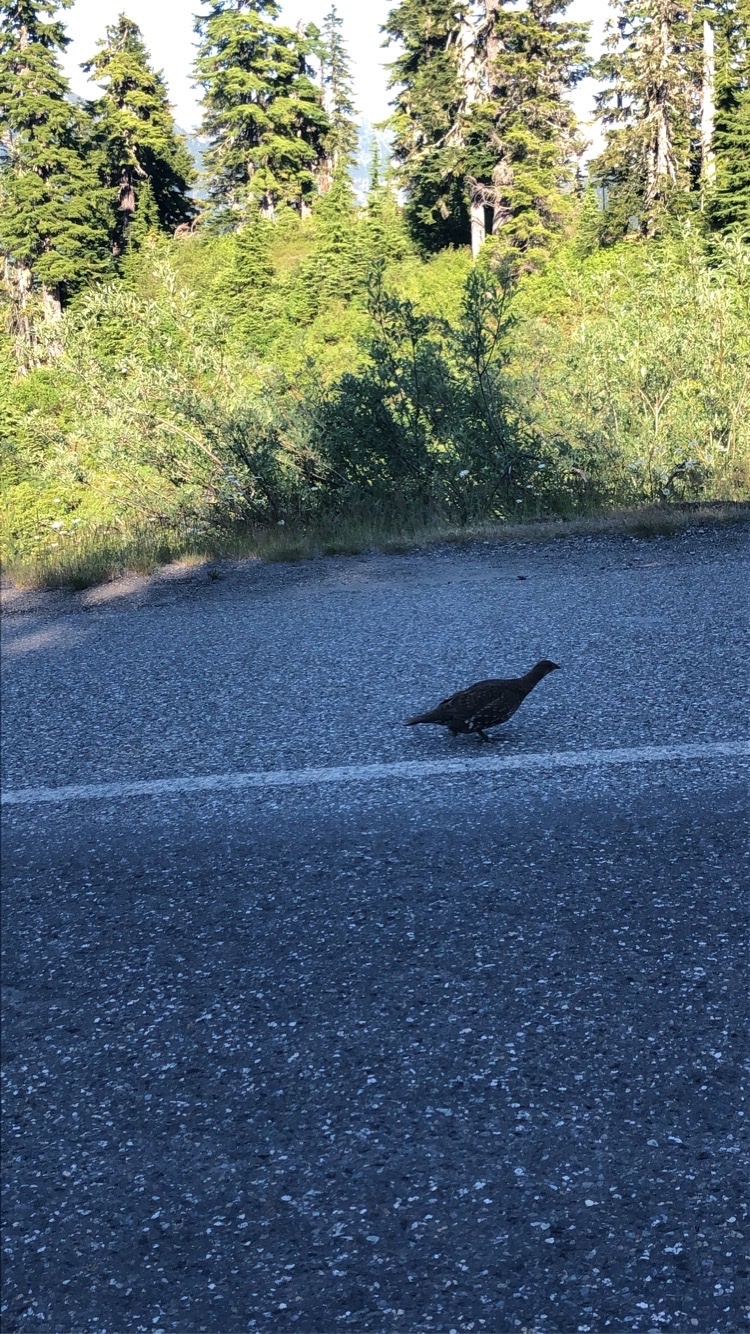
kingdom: Animalia
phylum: Chordata
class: Aves
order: Galliformes
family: Phasianidae
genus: Dendragapus
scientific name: Dendragapus fuliginosus
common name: Sooty grouse
